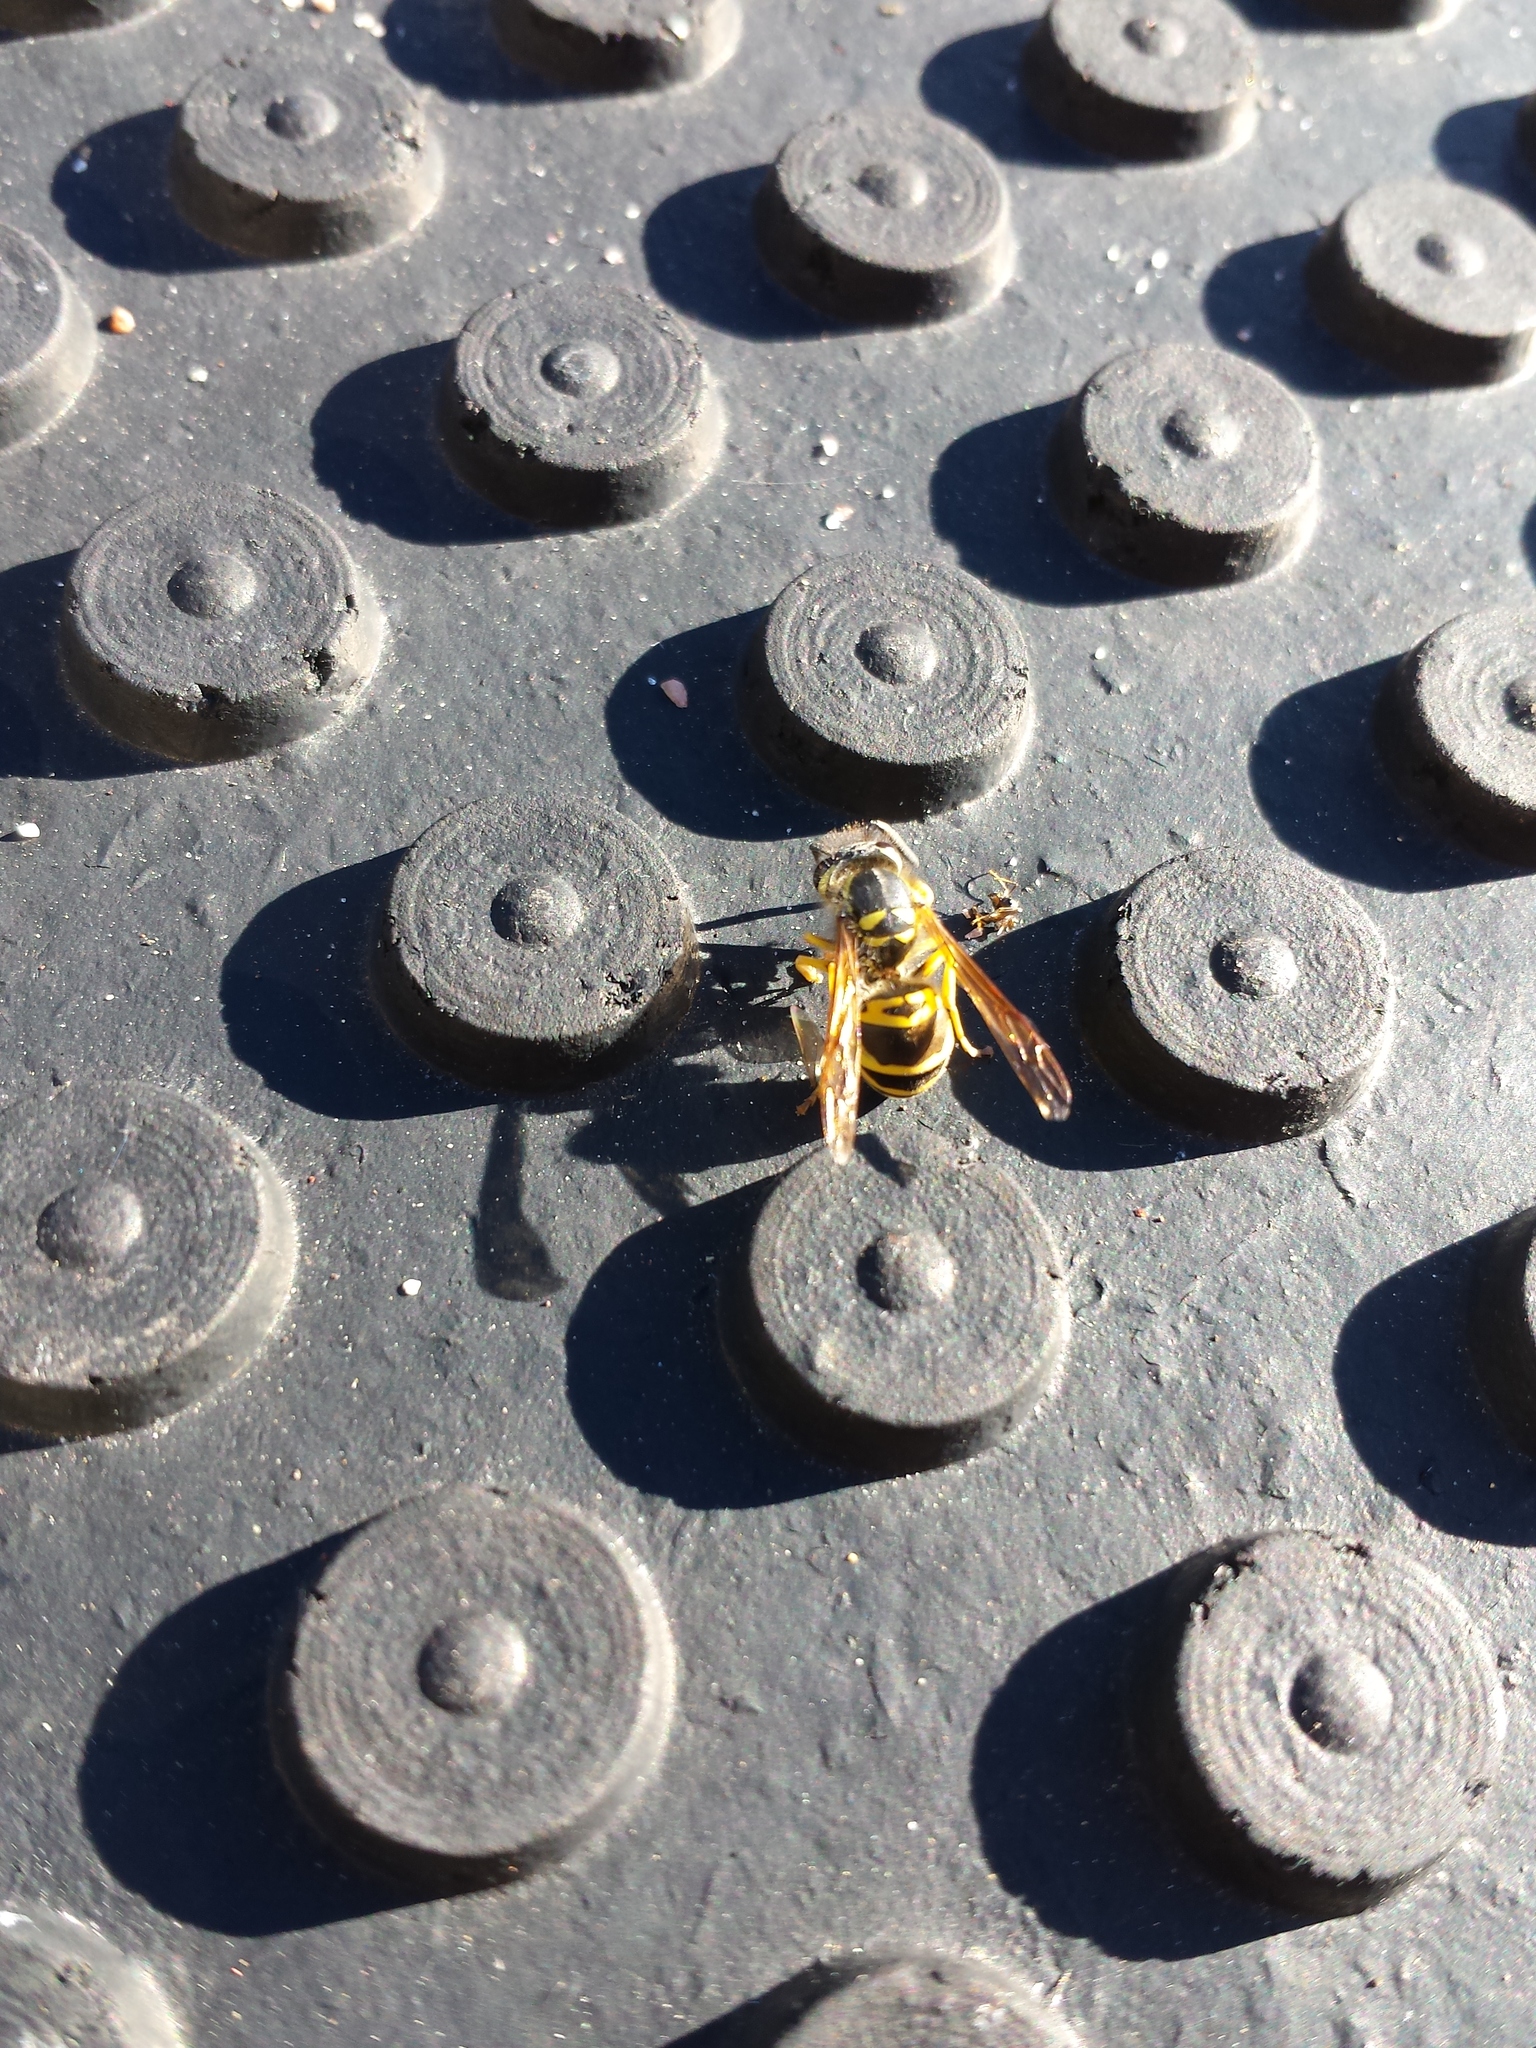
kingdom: Animalia
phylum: Arthropoda
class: Insecta
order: Hymenoptera
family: Vespidae
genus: Vespula
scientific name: Vespula maculifrons
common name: Eastern yellowjacket
